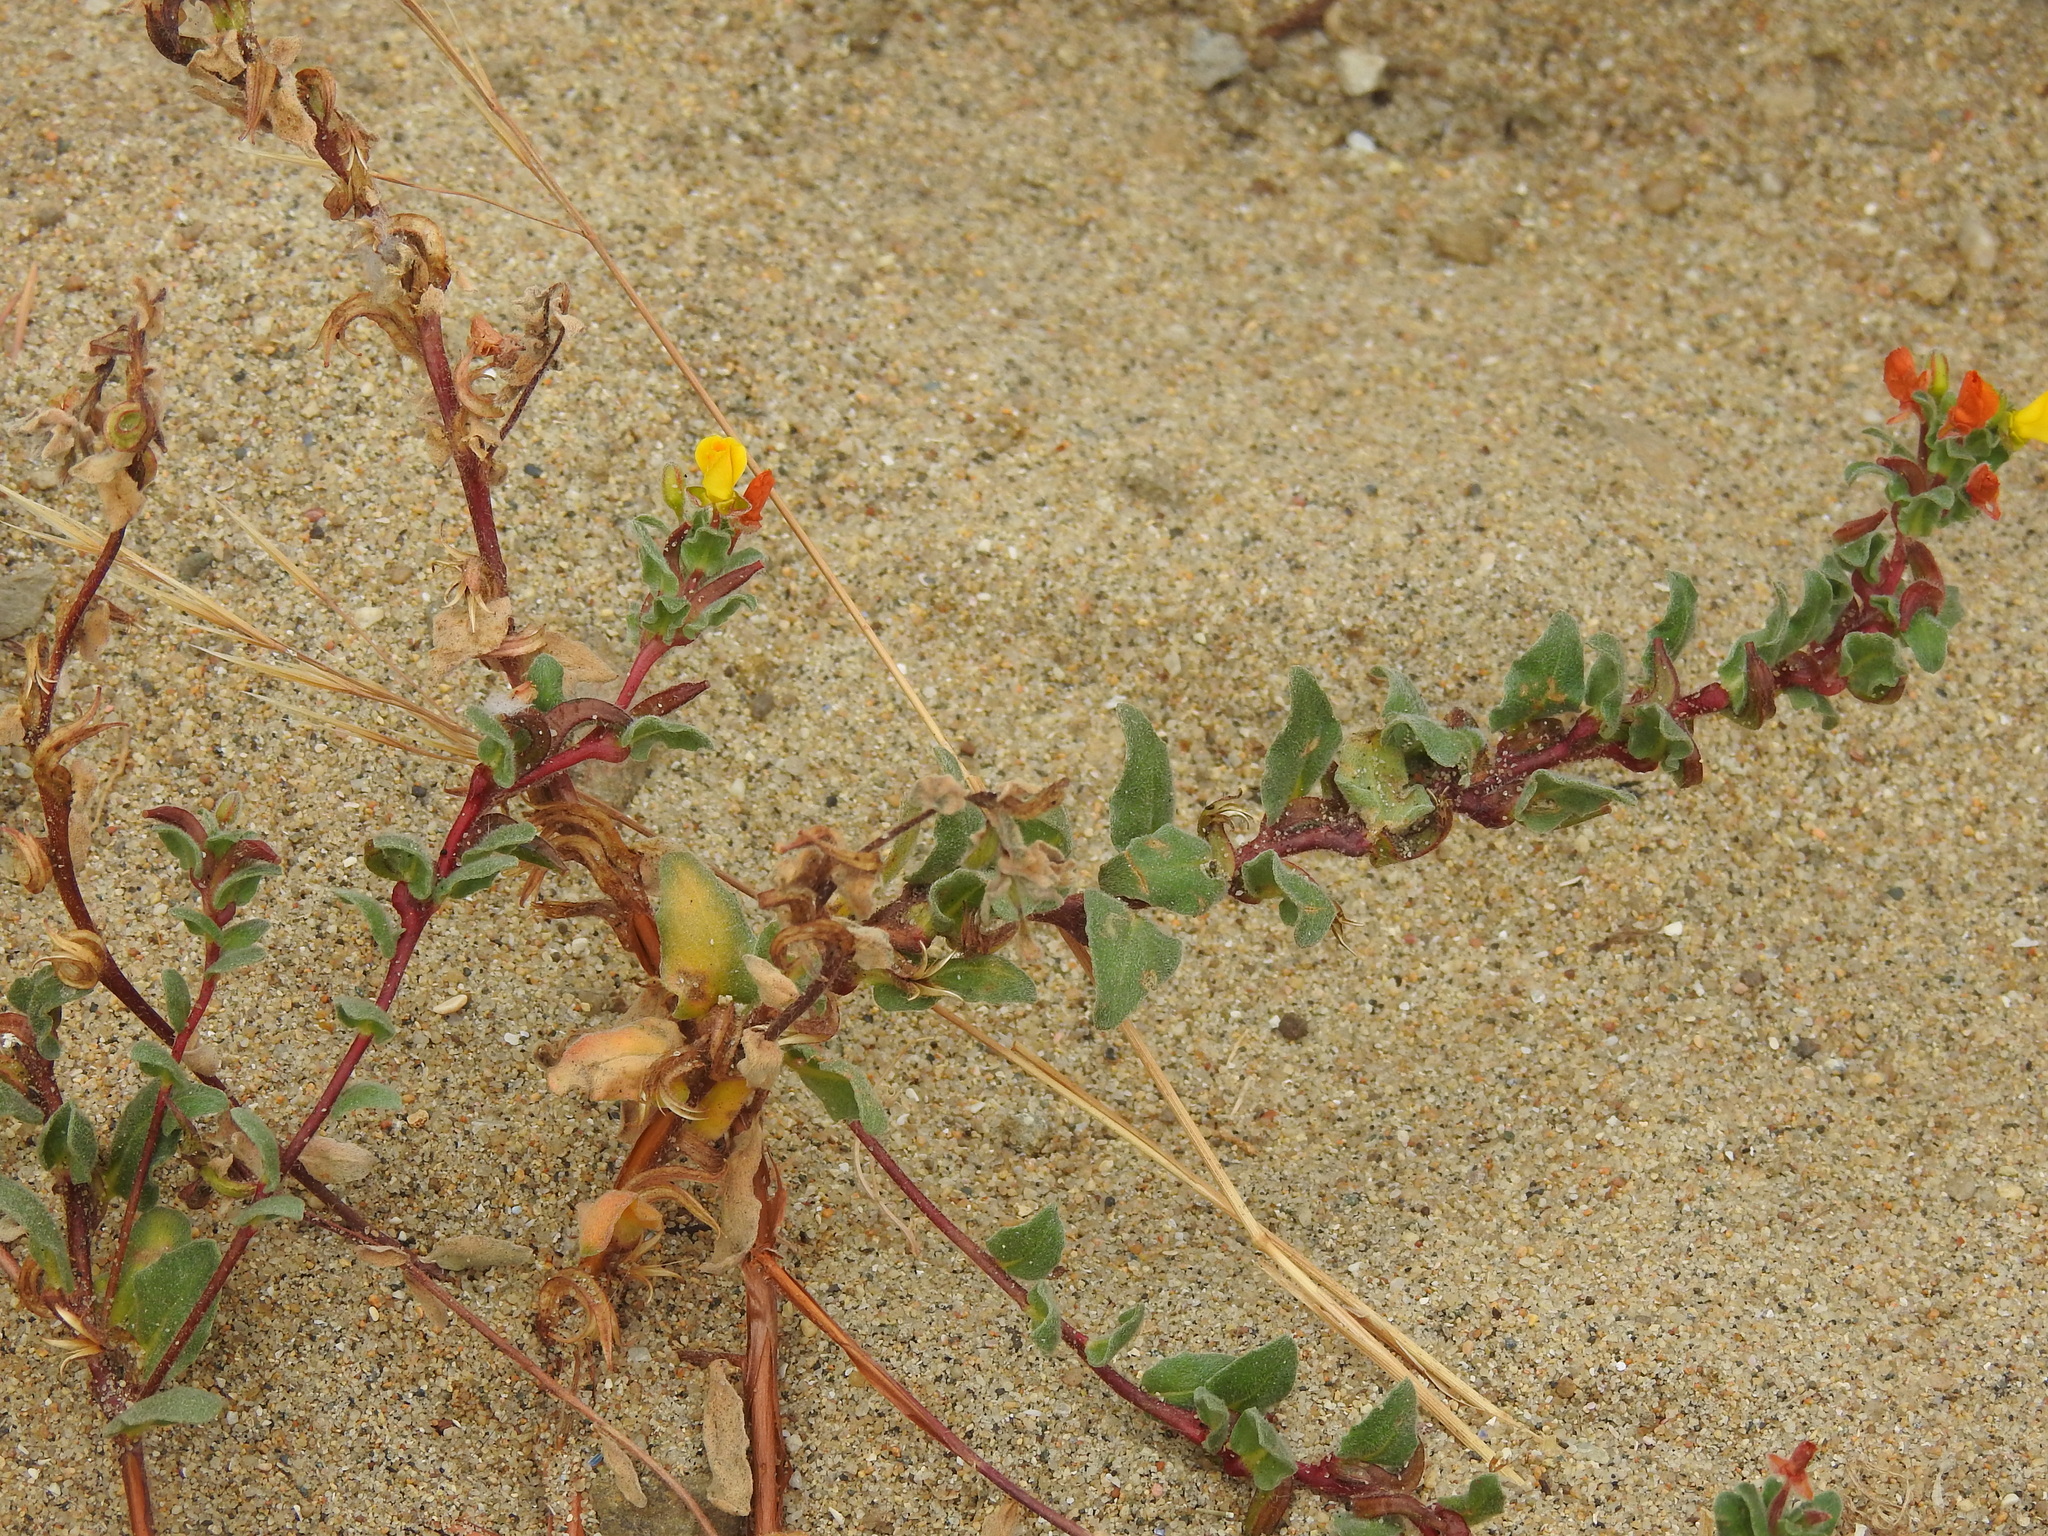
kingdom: Plantae
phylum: Tracheophyta
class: Magnoliopsida
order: Myrtales
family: Onagraceae
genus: Camissoniopsis
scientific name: Camissoniopsis cheiranthifolia
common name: Beach suncup
